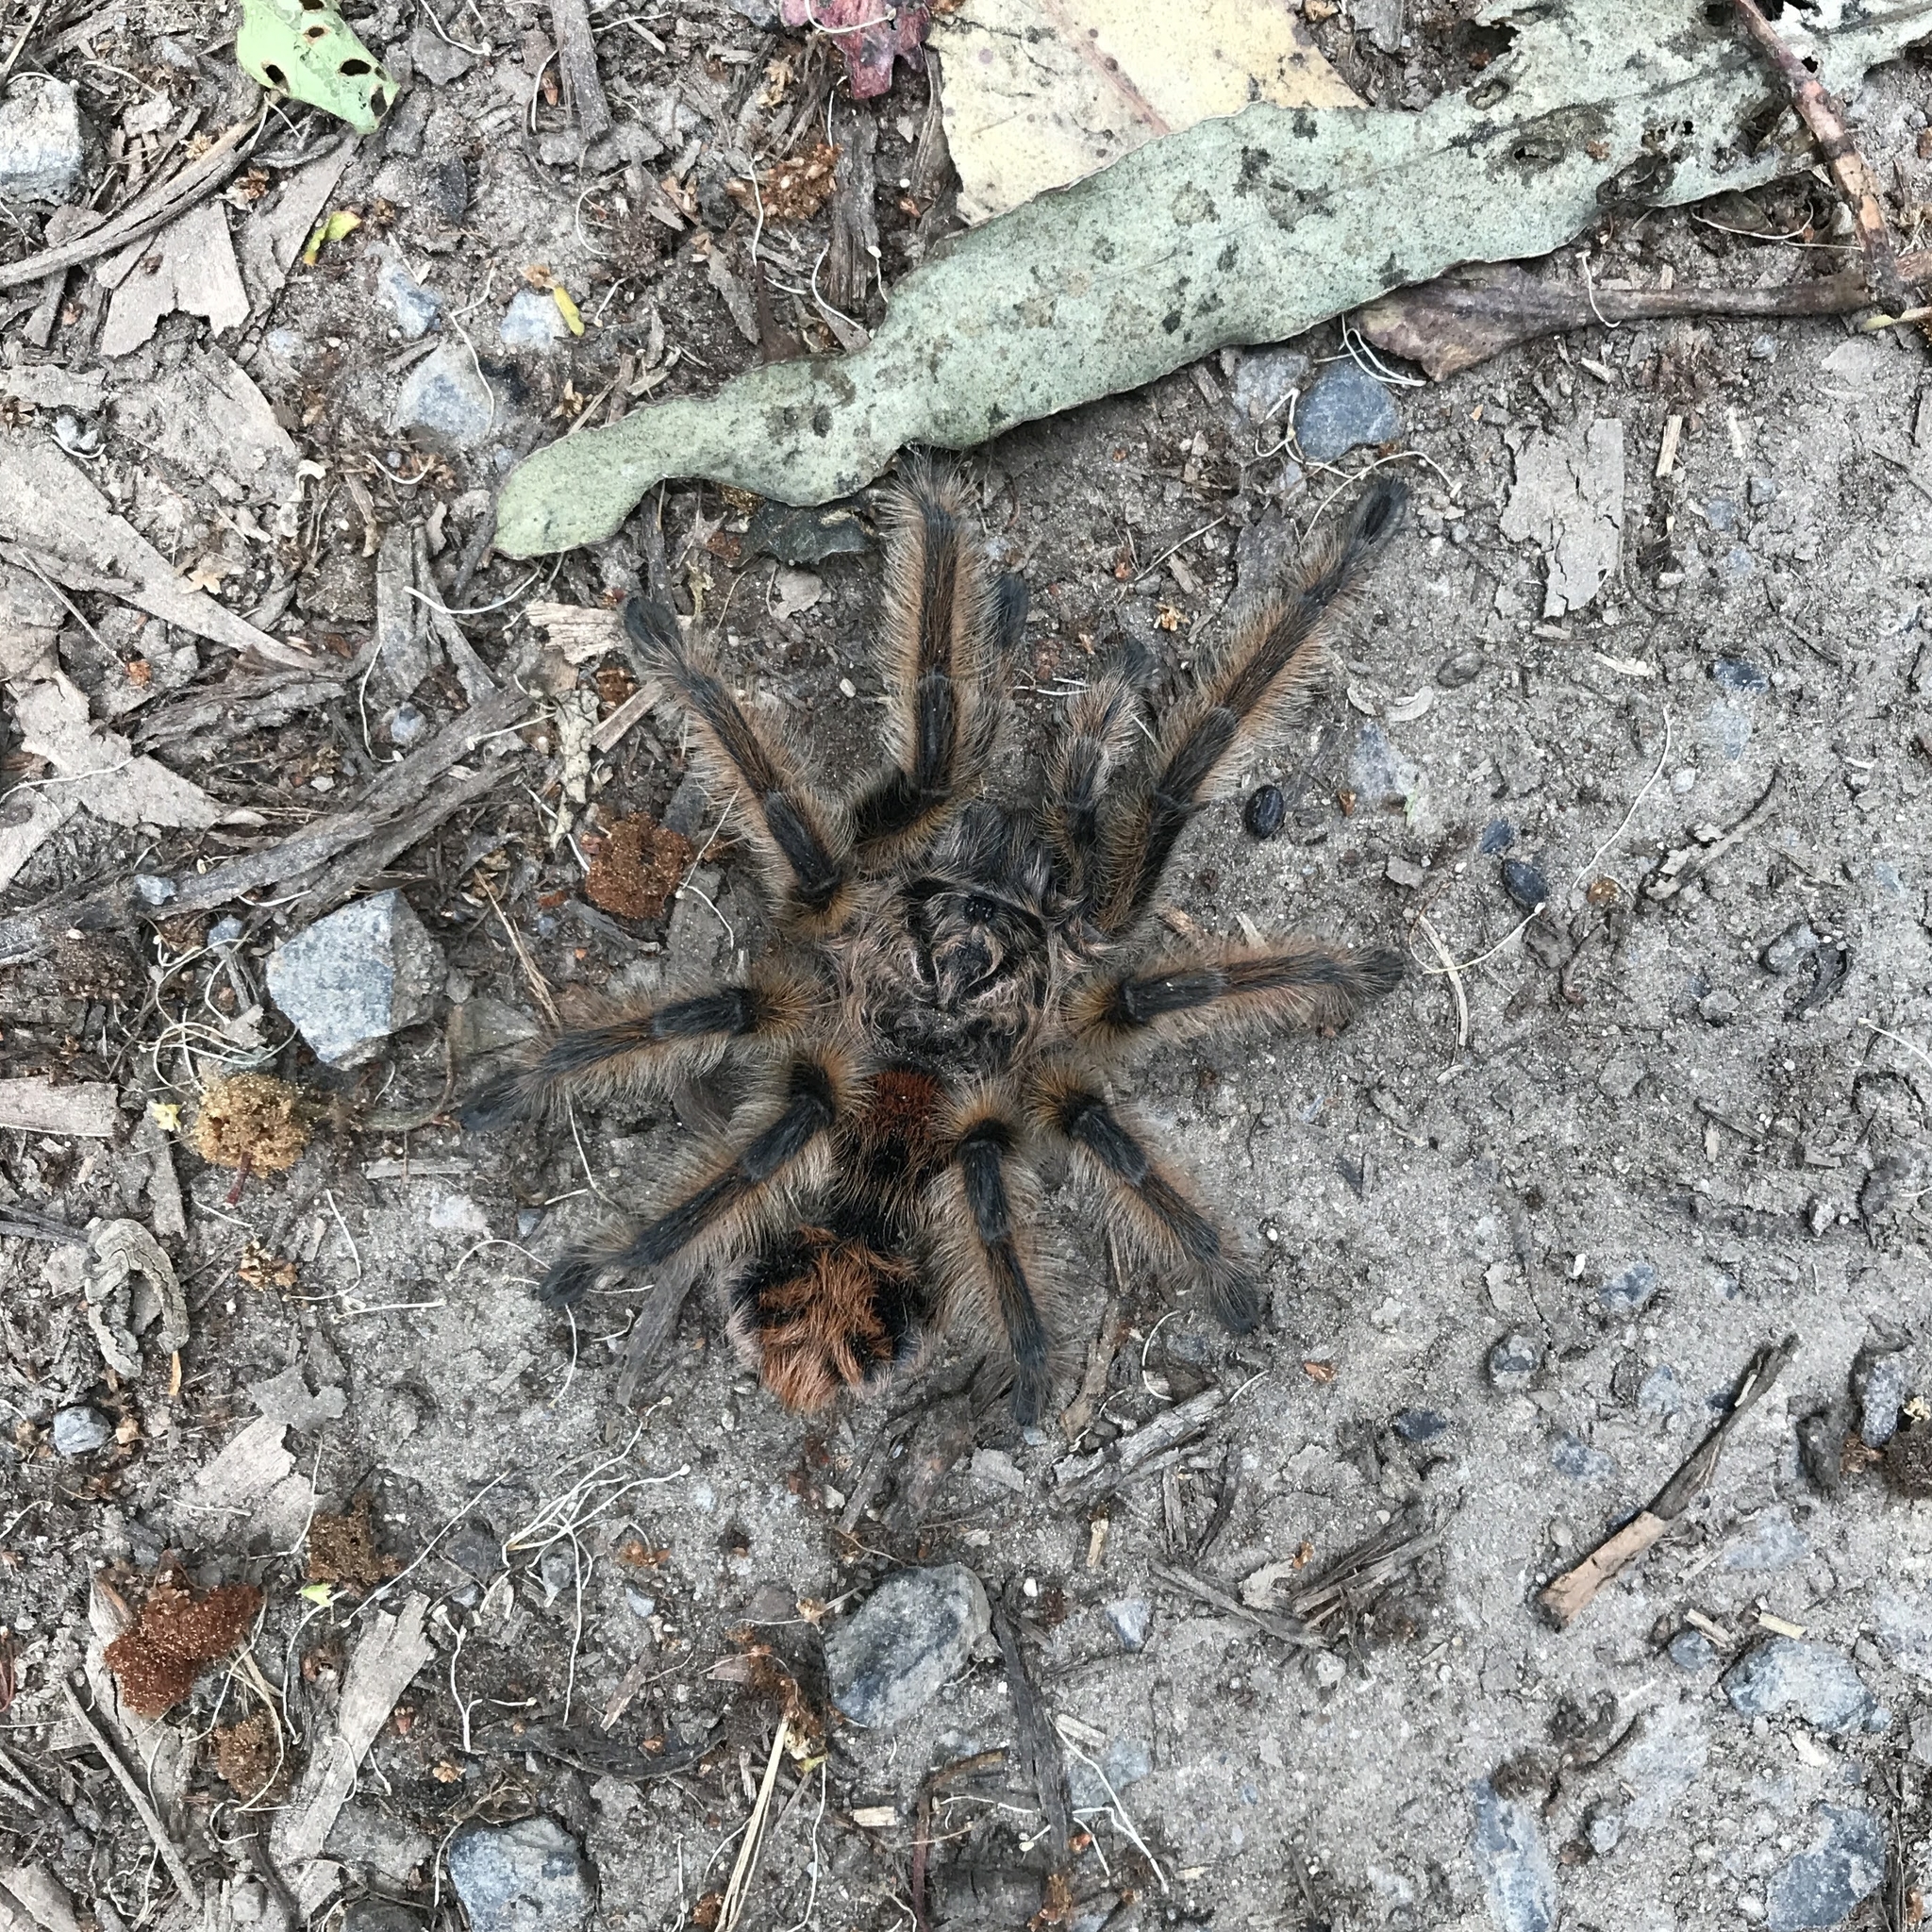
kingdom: Animalia
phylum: Arthropoda
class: Arachnida
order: Araneae
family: Theraphosidae
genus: Phrixotrichus
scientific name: Phrixotrichus vulpinus
